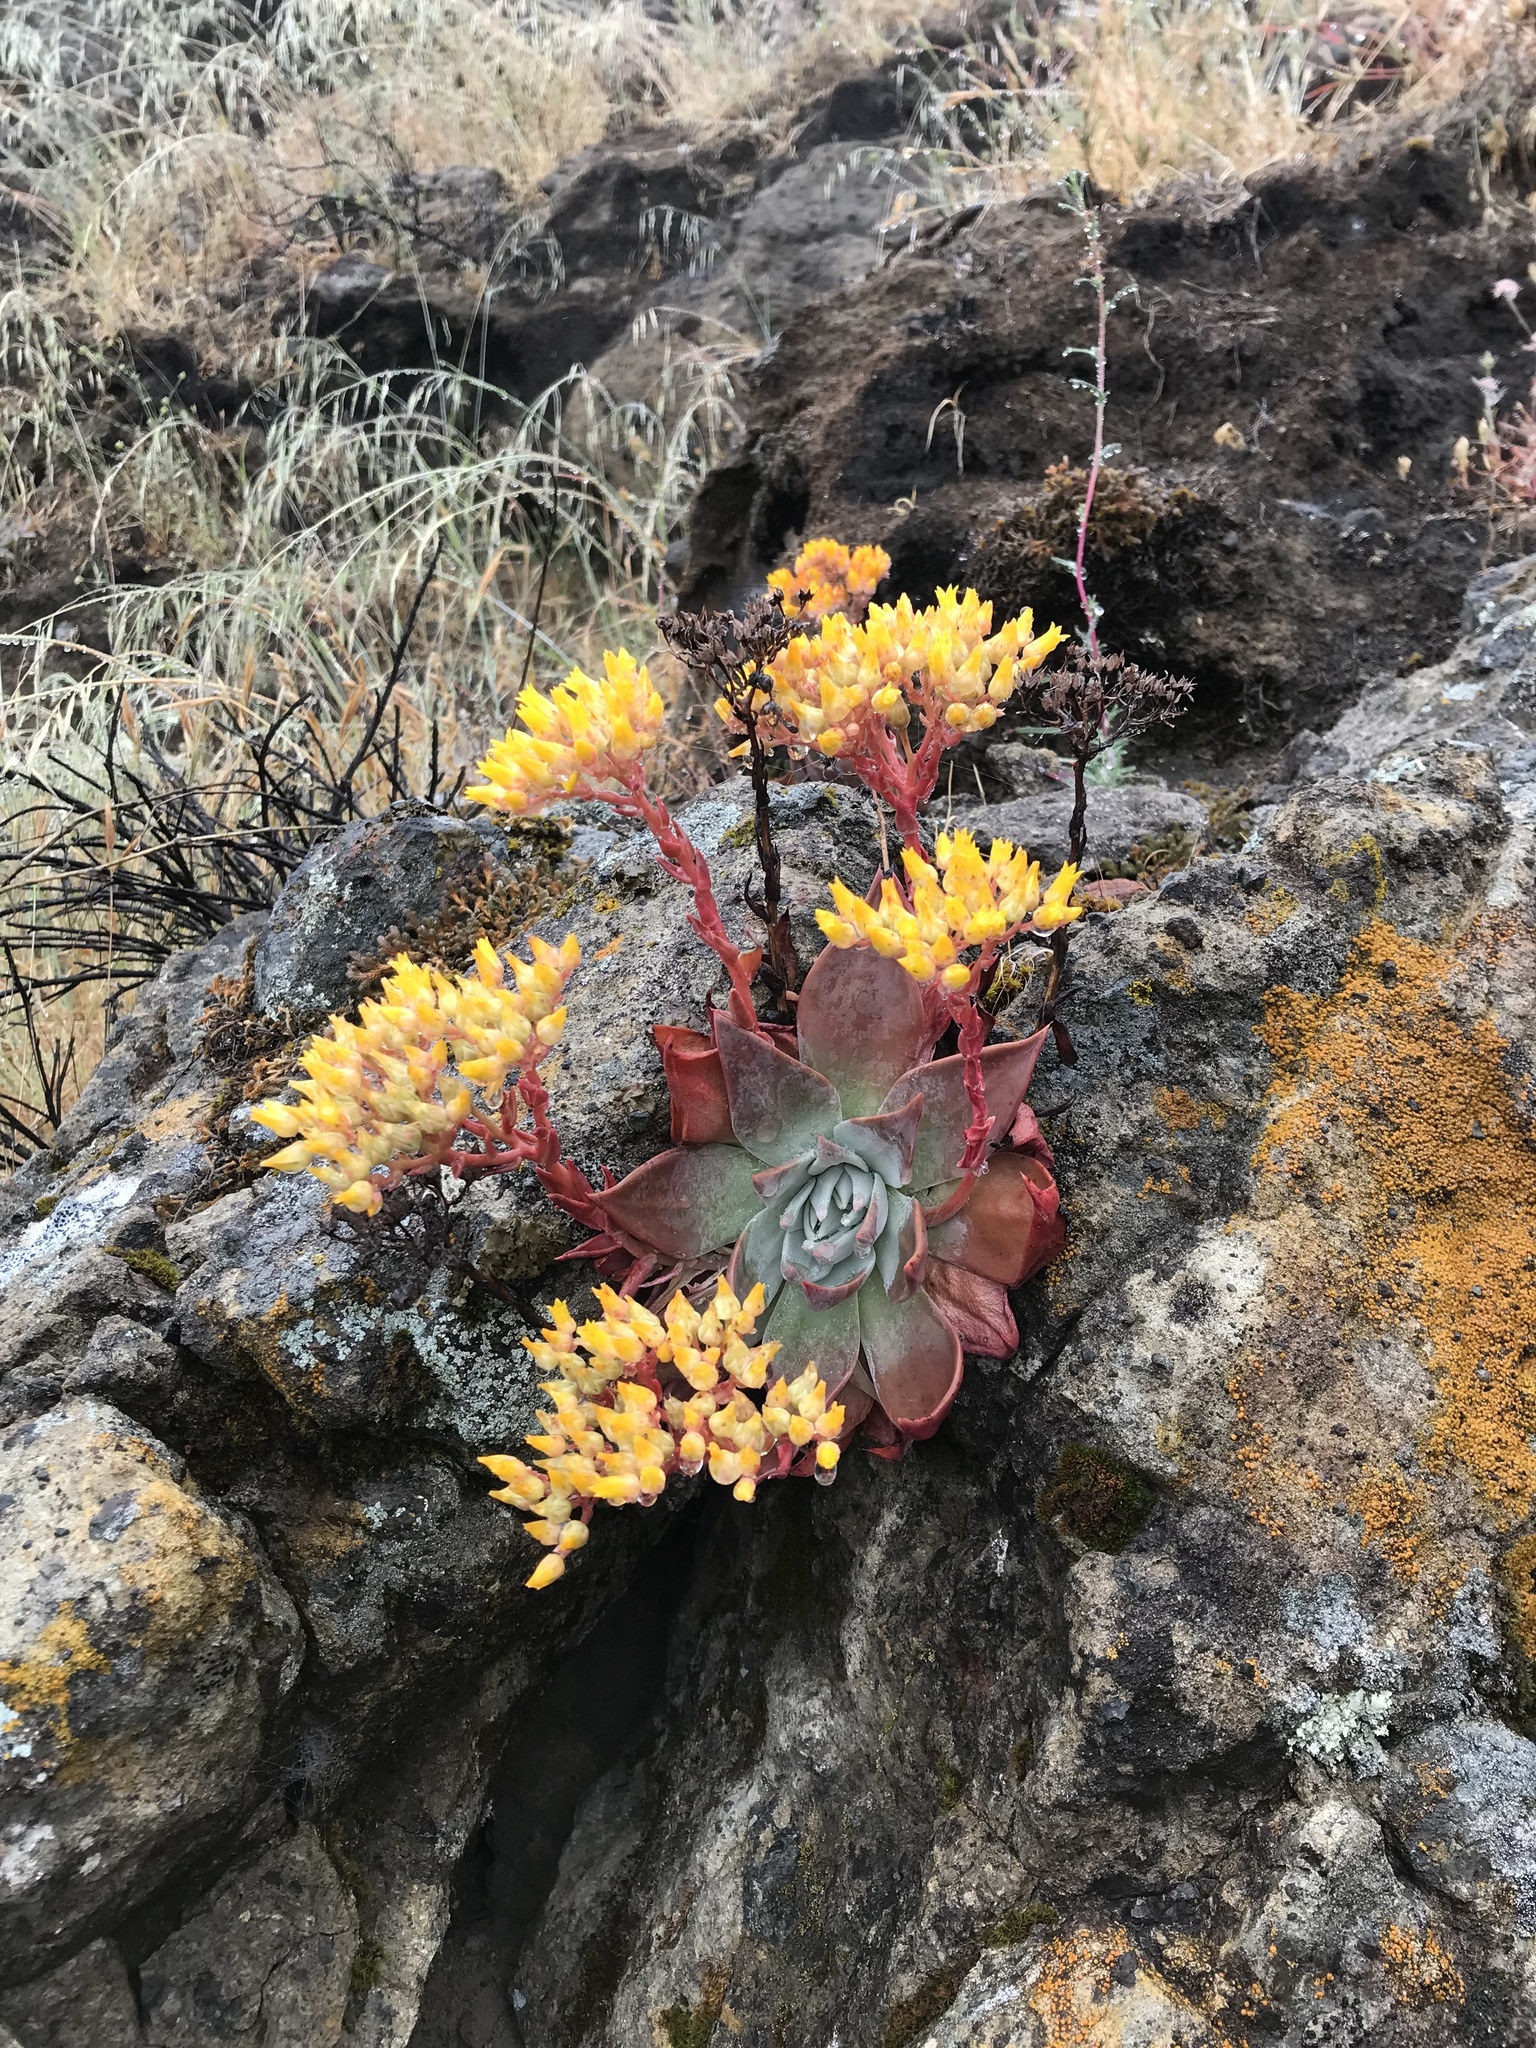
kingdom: Plantae
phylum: Tracheophyta
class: Magnoliopsida
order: Saxifragales
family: Crassulaceae
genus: Dudleya
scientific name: Dudleya cymosa
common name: Canyon dudleya
